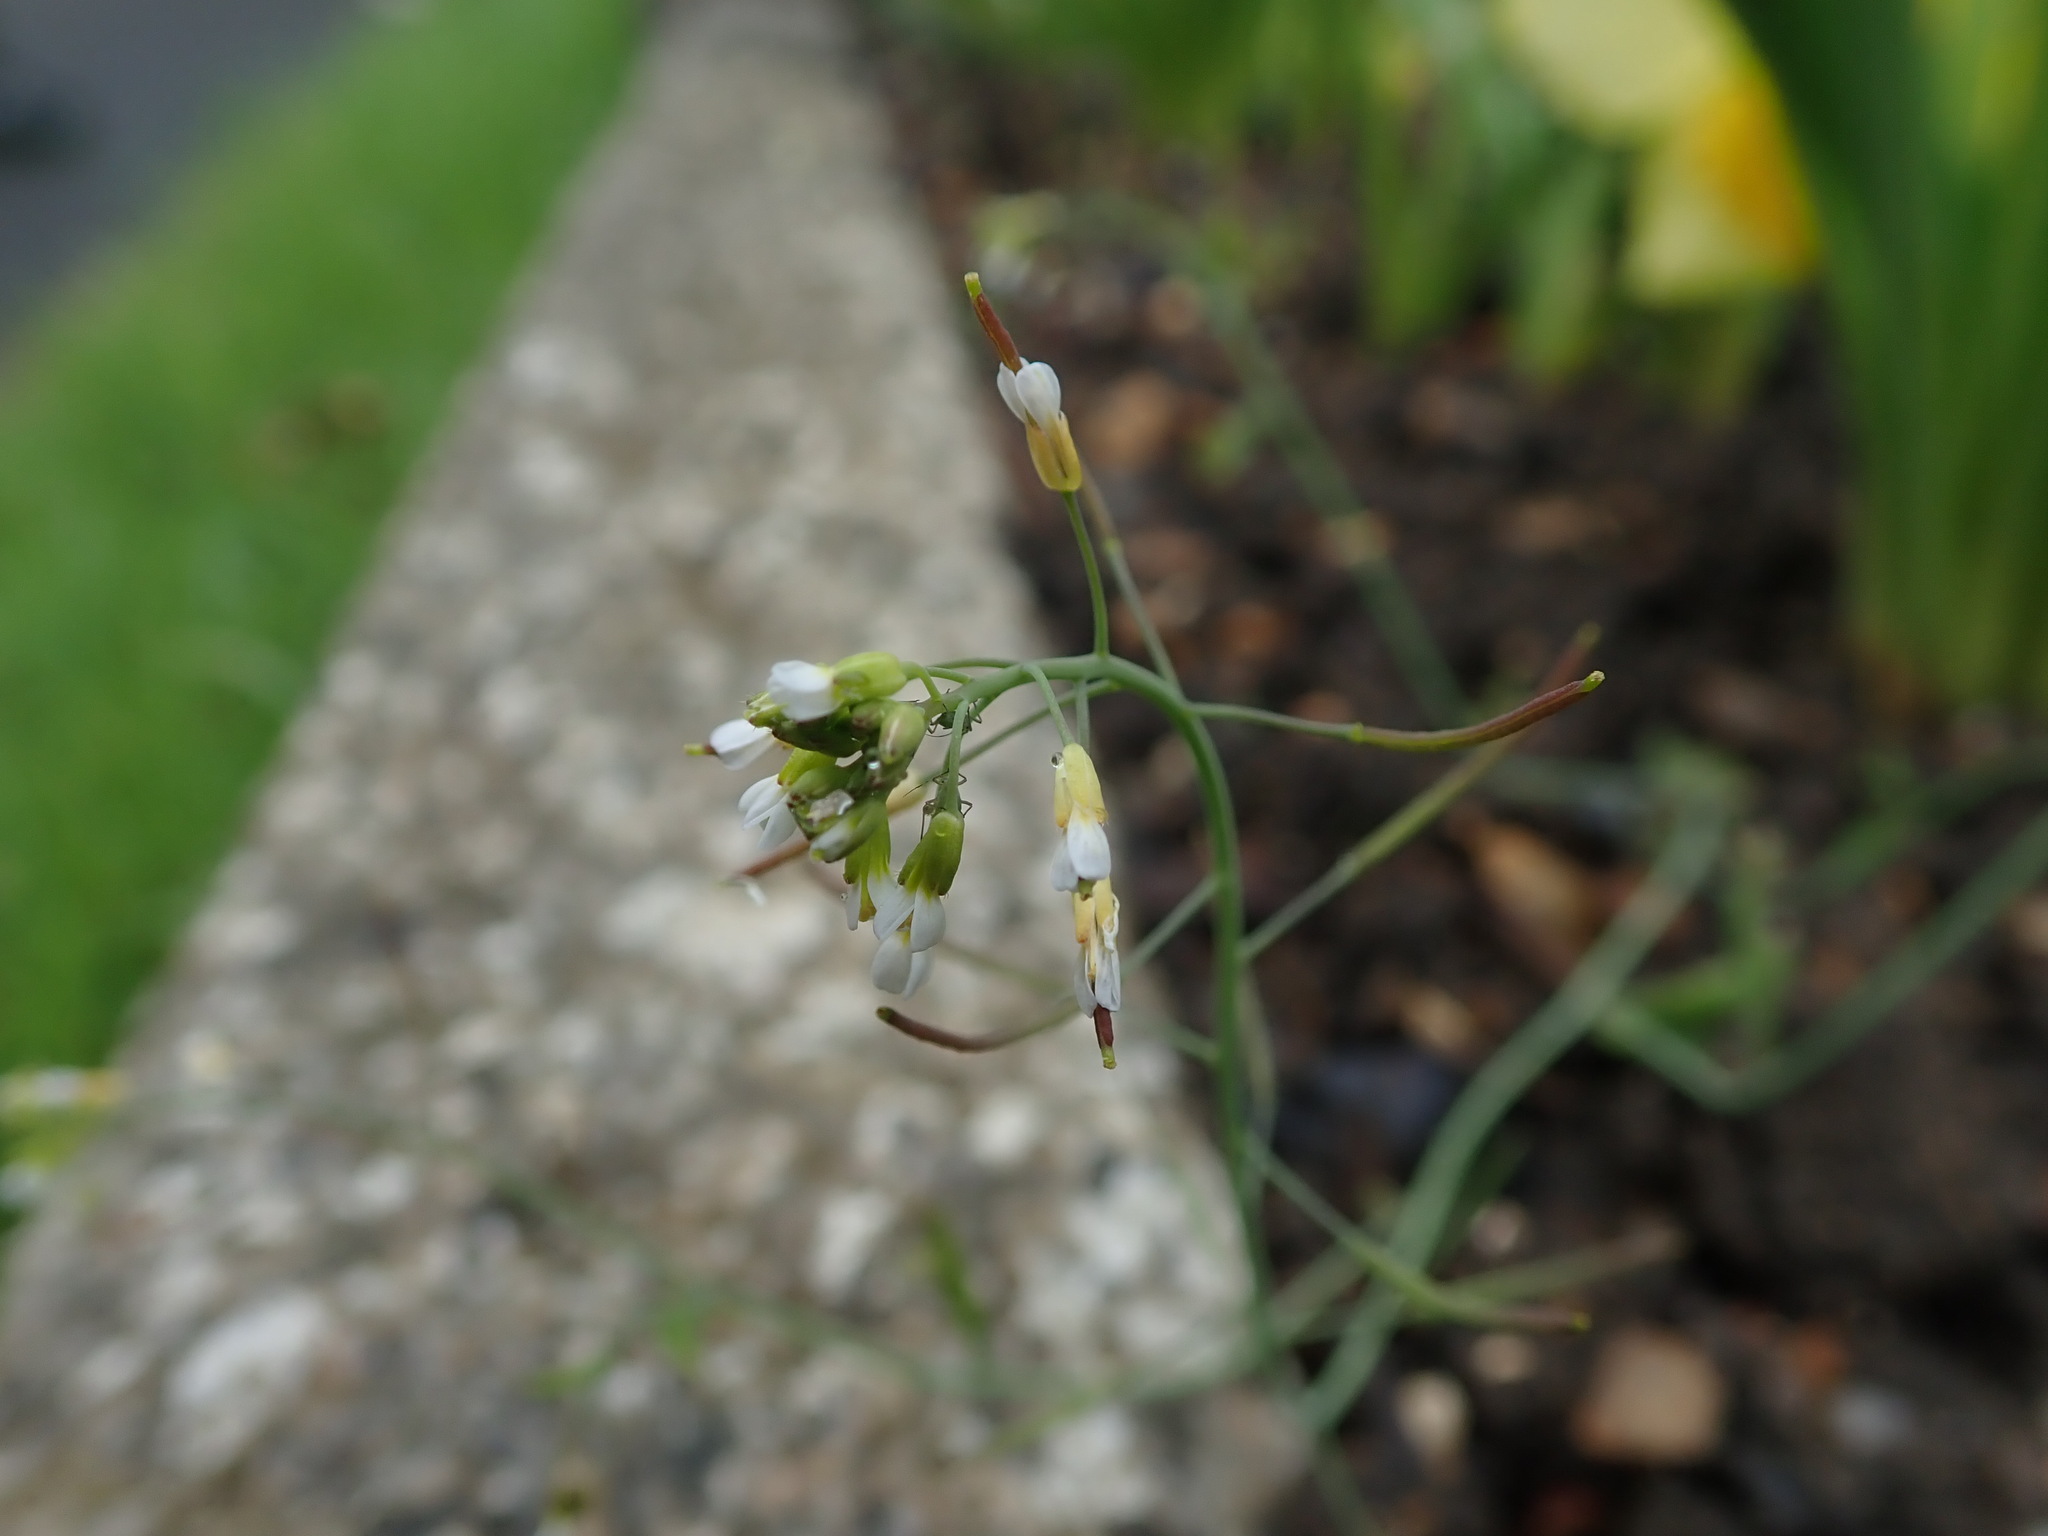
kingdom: Plantae
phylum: Tracheophyta
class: Magnoliopsida
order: Brassicales
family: Brassicaceae
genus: Arabidopsis
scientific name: Arabidopsis thaliana
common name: Thale cress
